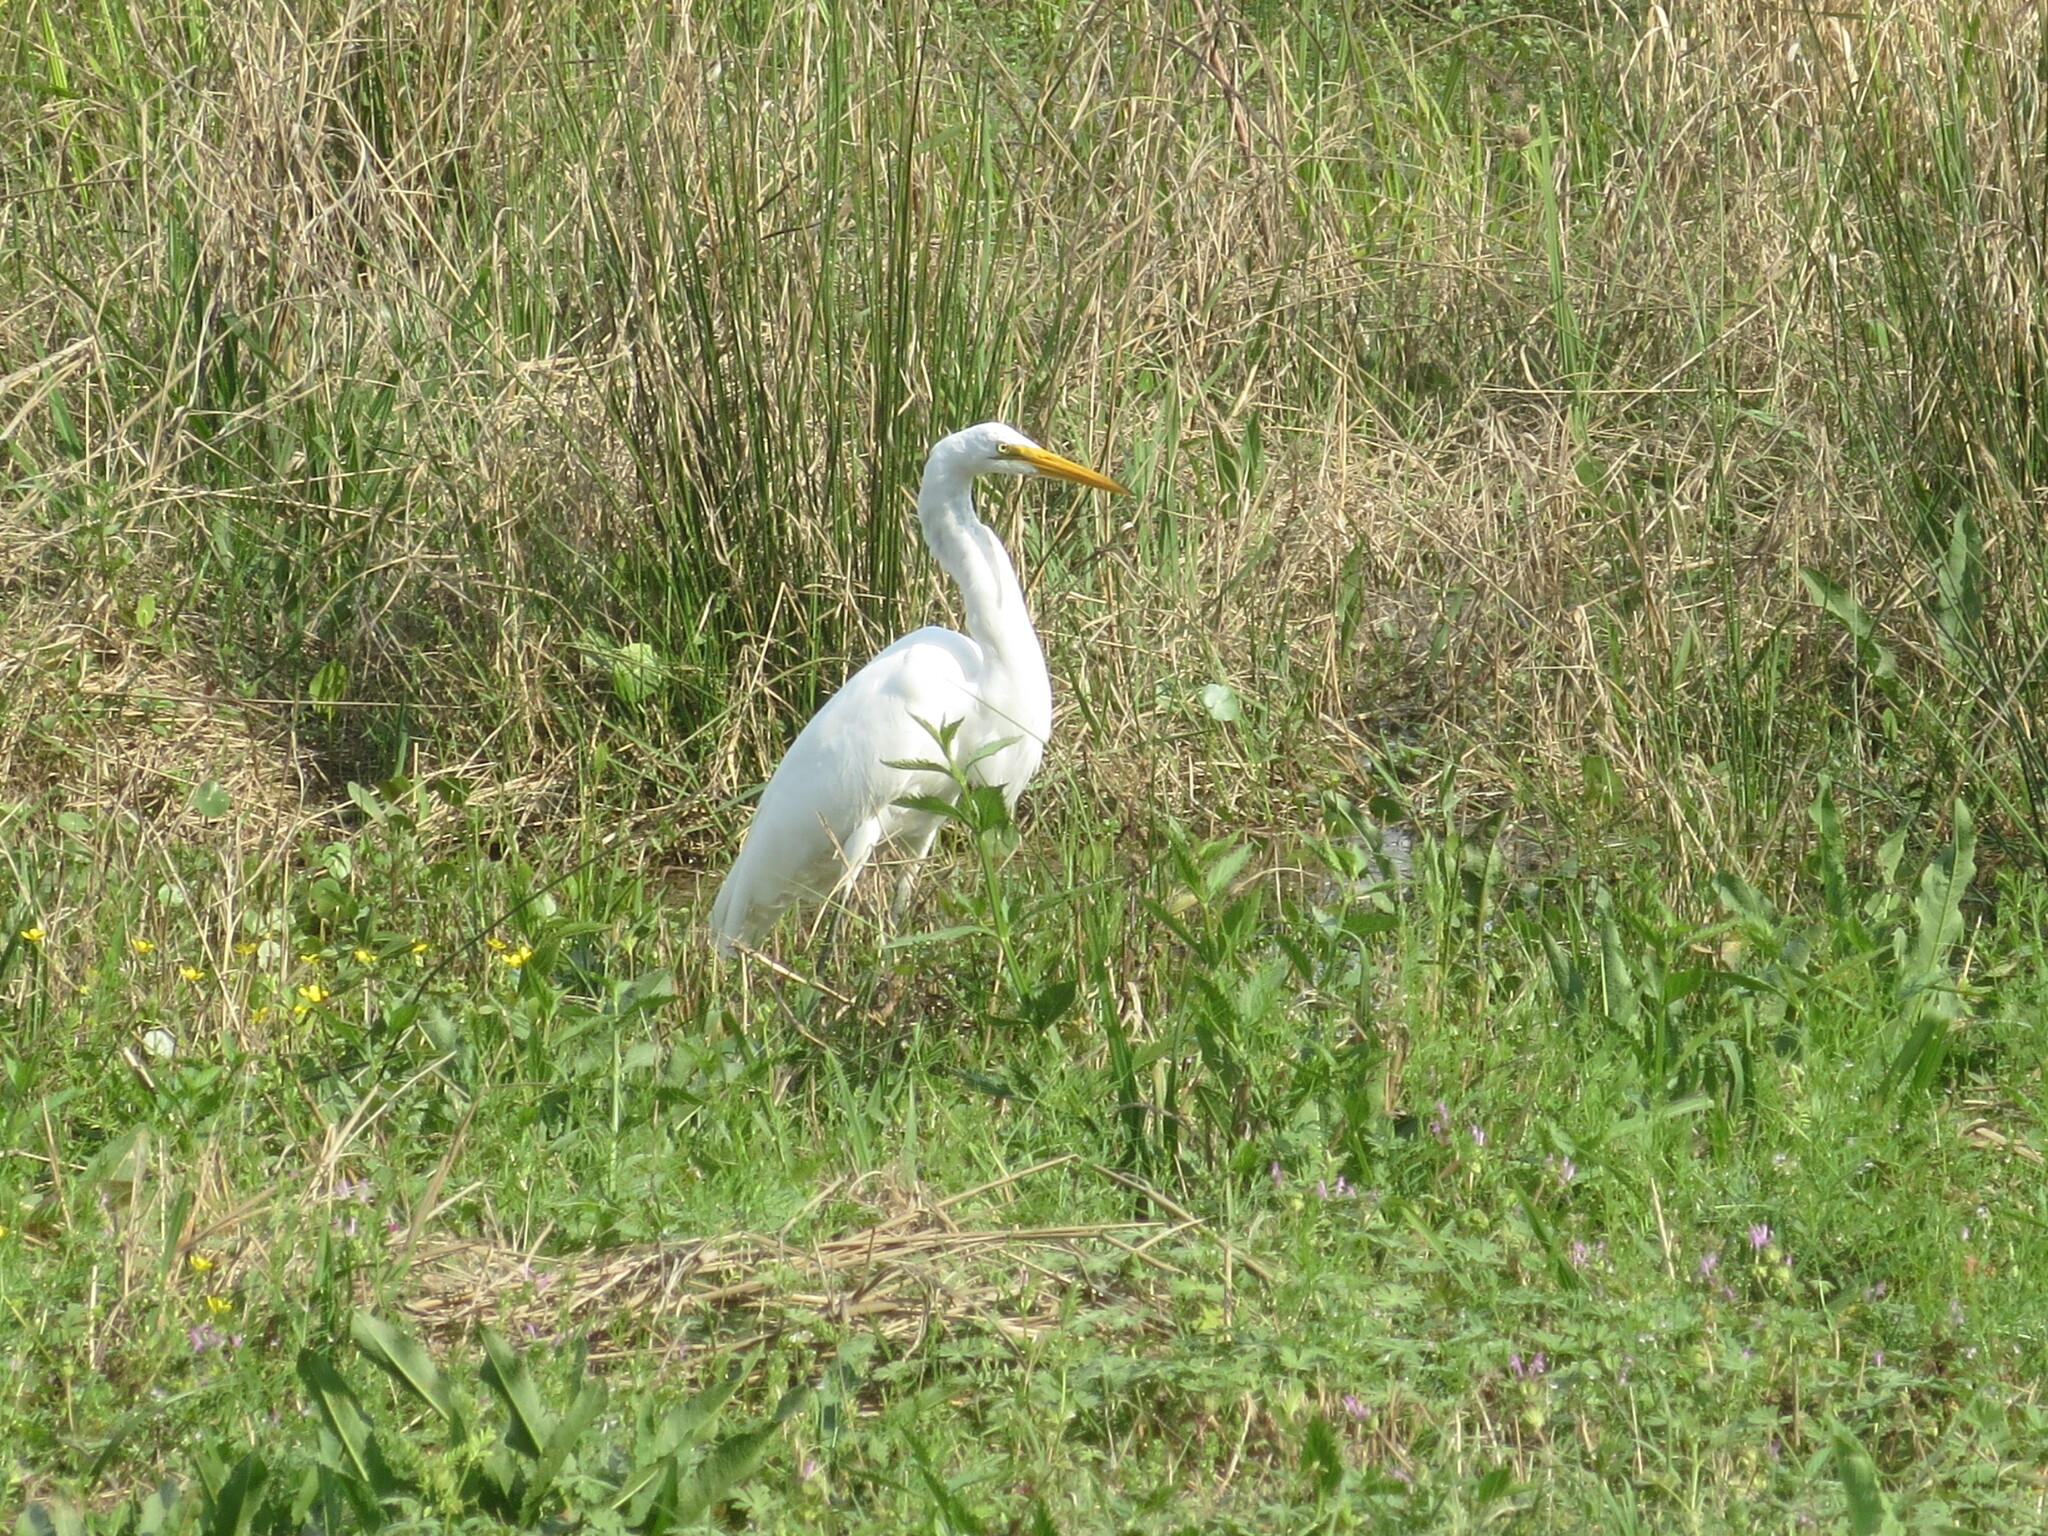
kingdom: Animalia
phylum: Chordata
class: Aves
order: Pelecaniformes
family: Ardeidae
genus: Ardea
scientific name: Ardea alba
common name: Great egret
